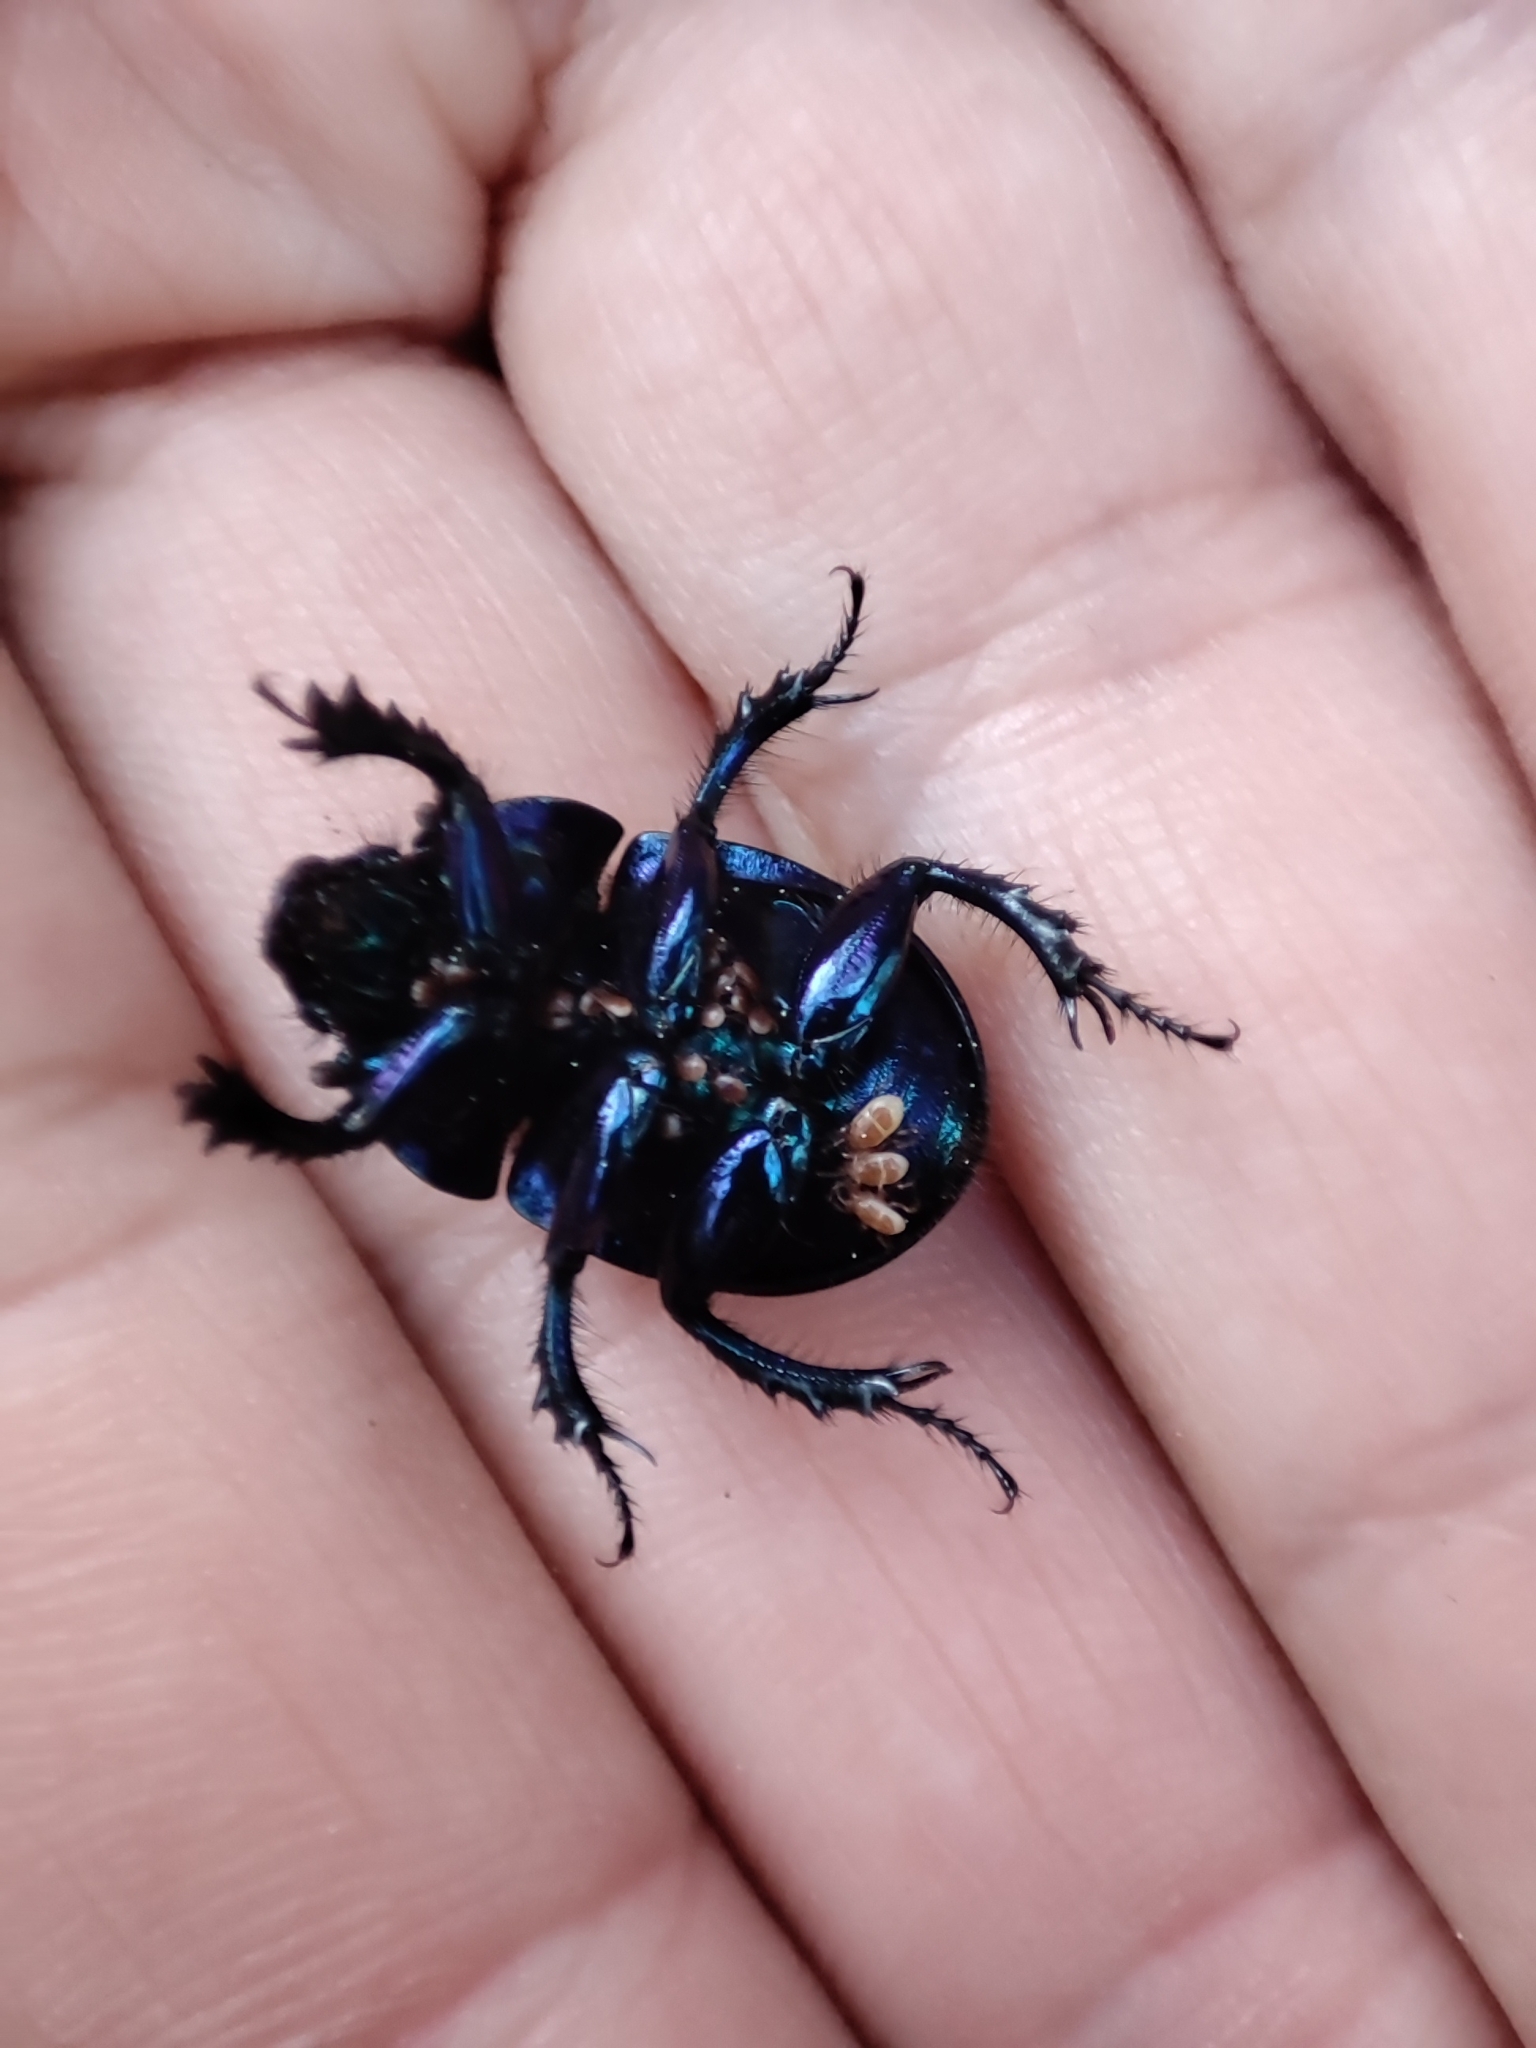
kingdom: Animalia
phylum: Arthropoda
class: Insecta
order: Coleoptera
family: Geotrupidae
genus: Anoplotrupes
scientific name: Anoplotrupes stercorosus
